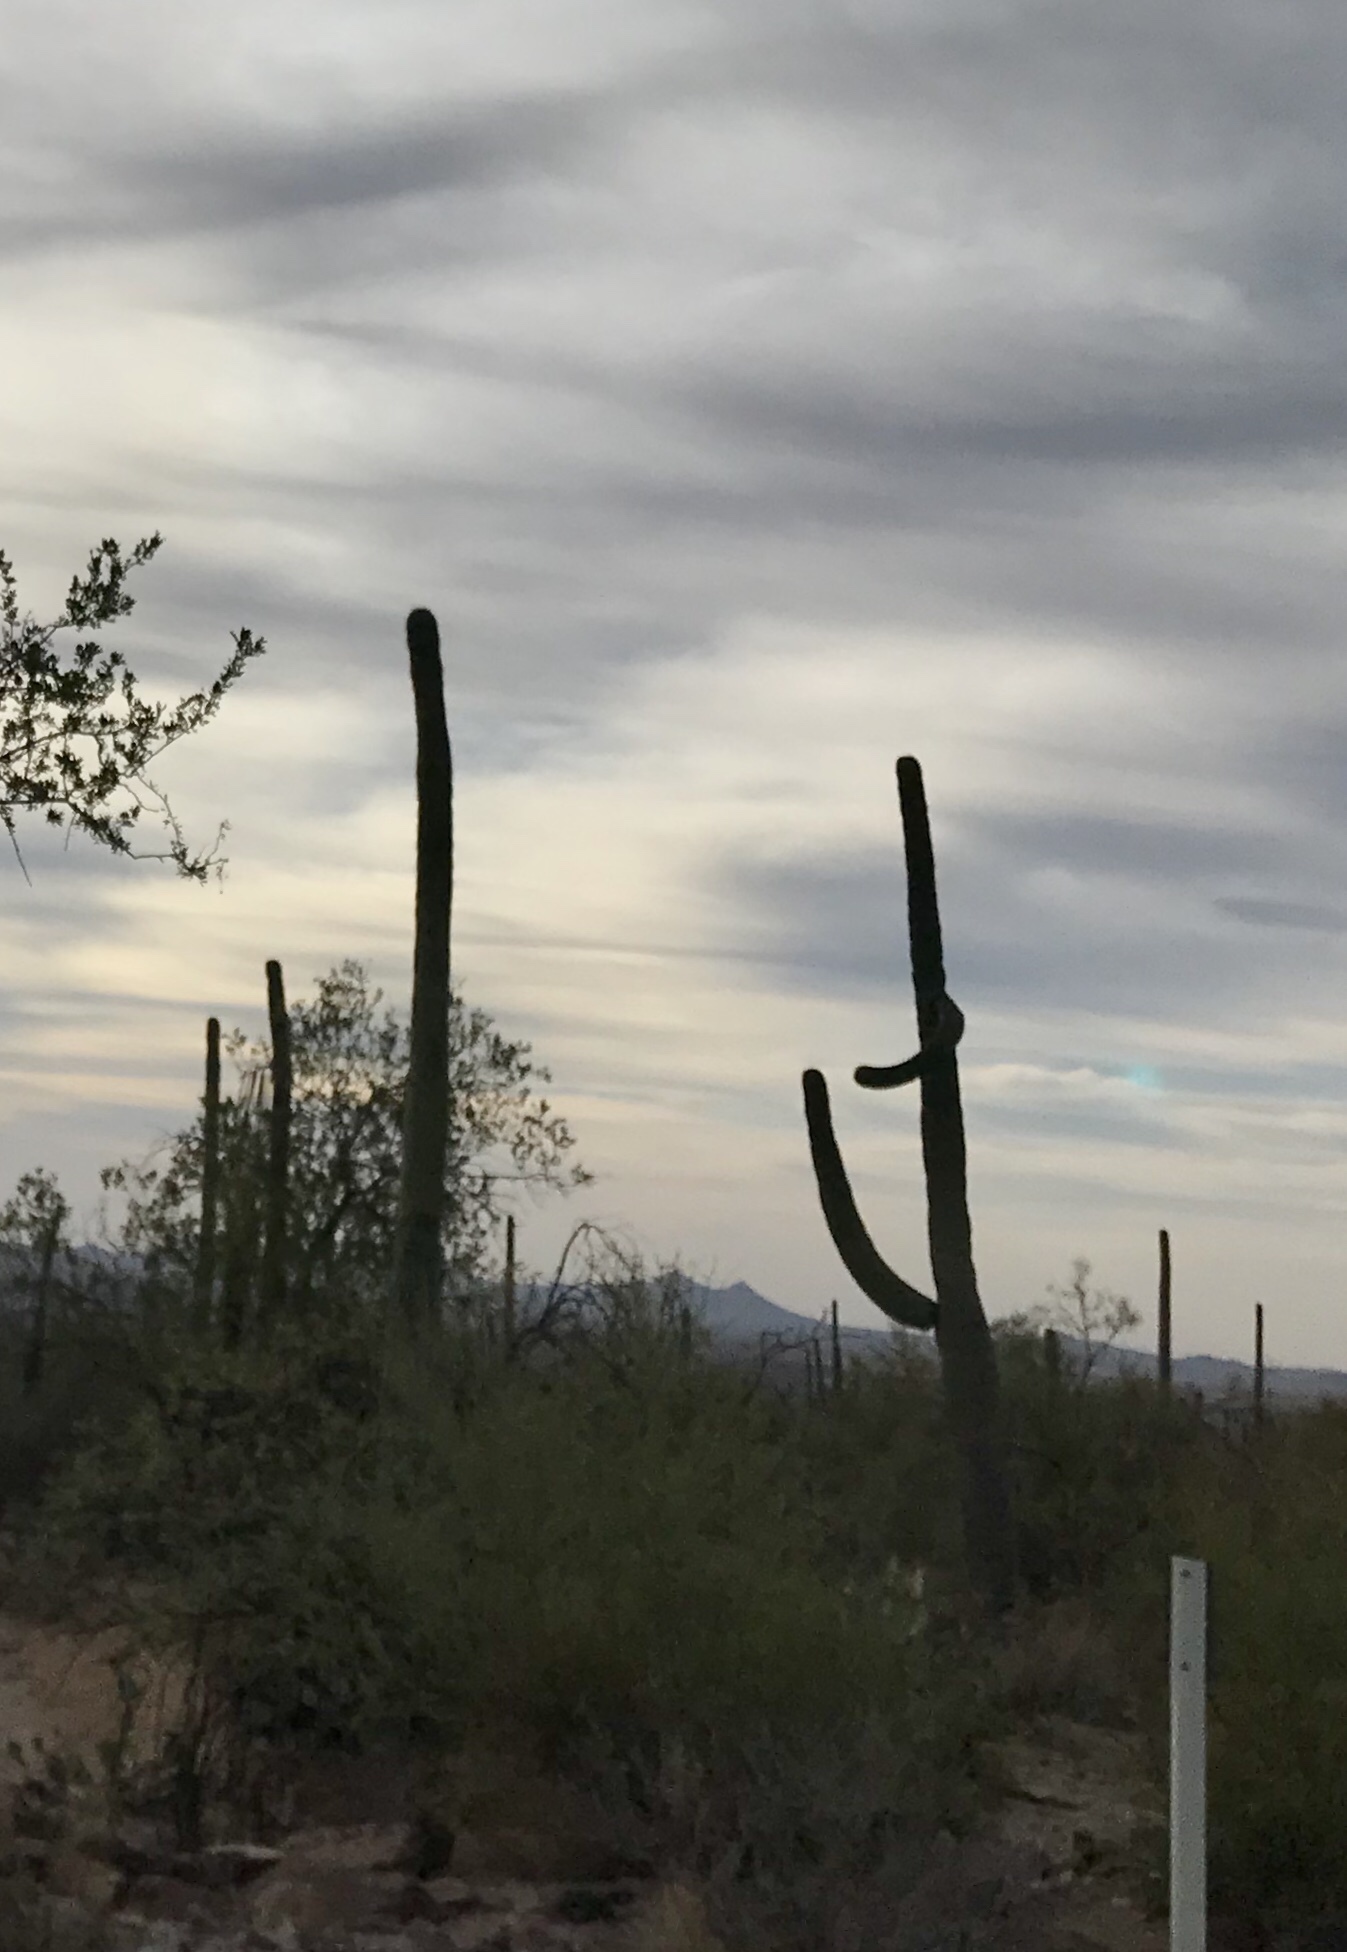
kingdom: Plantae
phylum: Tracheophyta
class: Magnoliopsida
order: Caryophyllales
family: Cactaceae
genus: Carnegiea
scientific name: Carnegiea gigantea
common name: Saguaro
